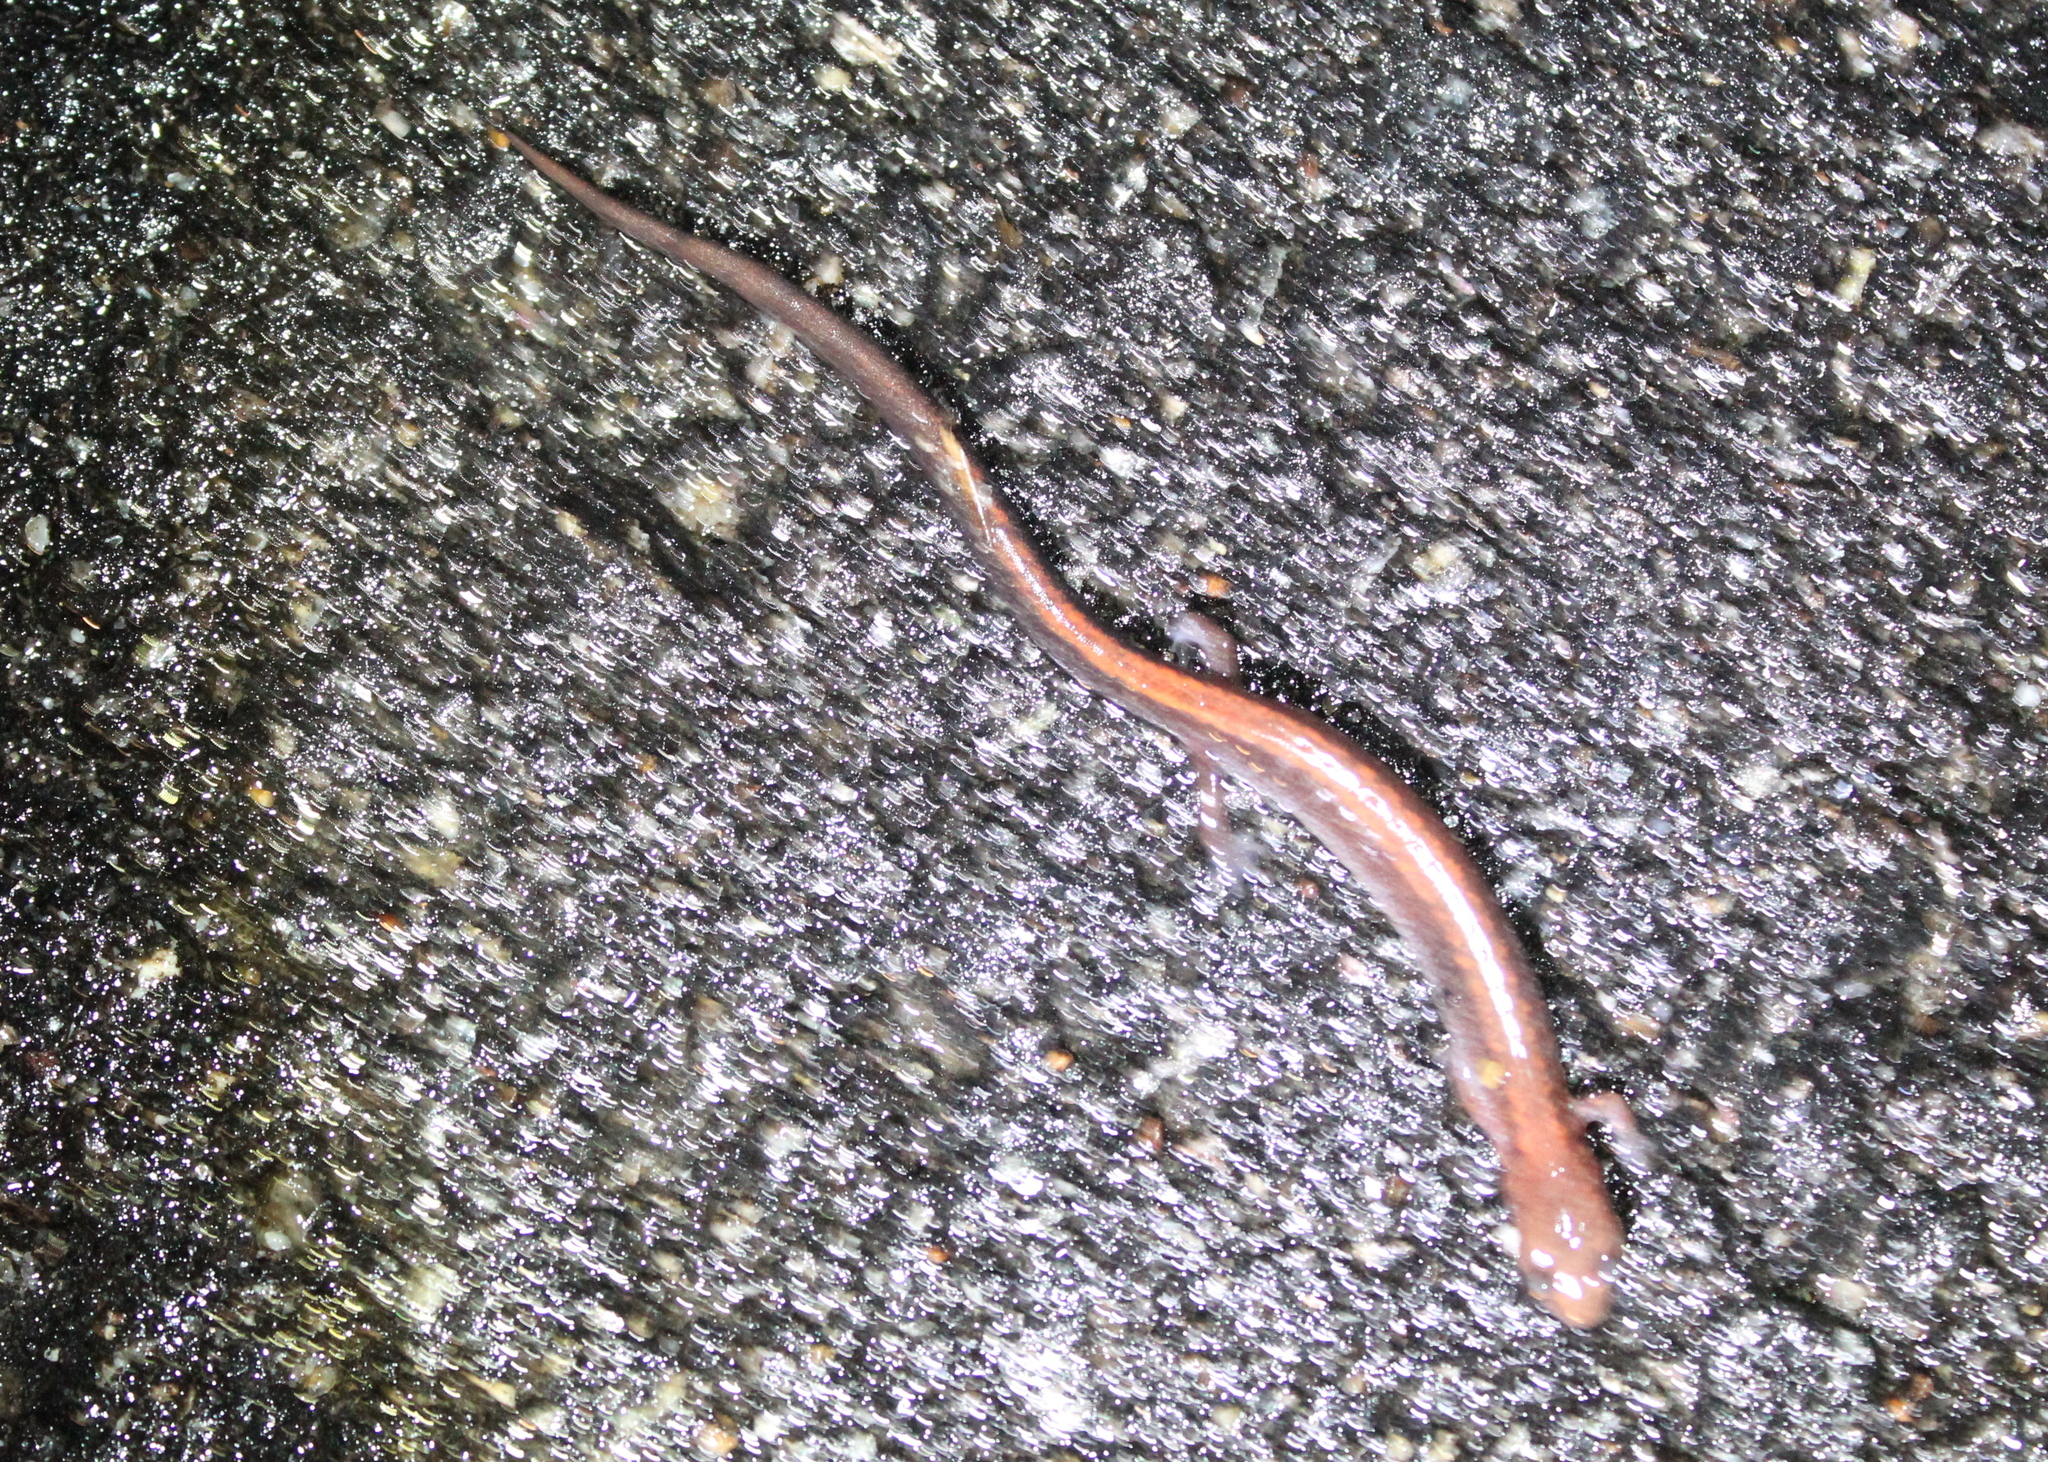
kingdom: Animalia
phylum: Chordata
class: Amphibia
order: Caudata
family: Plethodontidae
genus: Plethodon
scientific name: Plethodon cinereus
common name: Redback salamander
